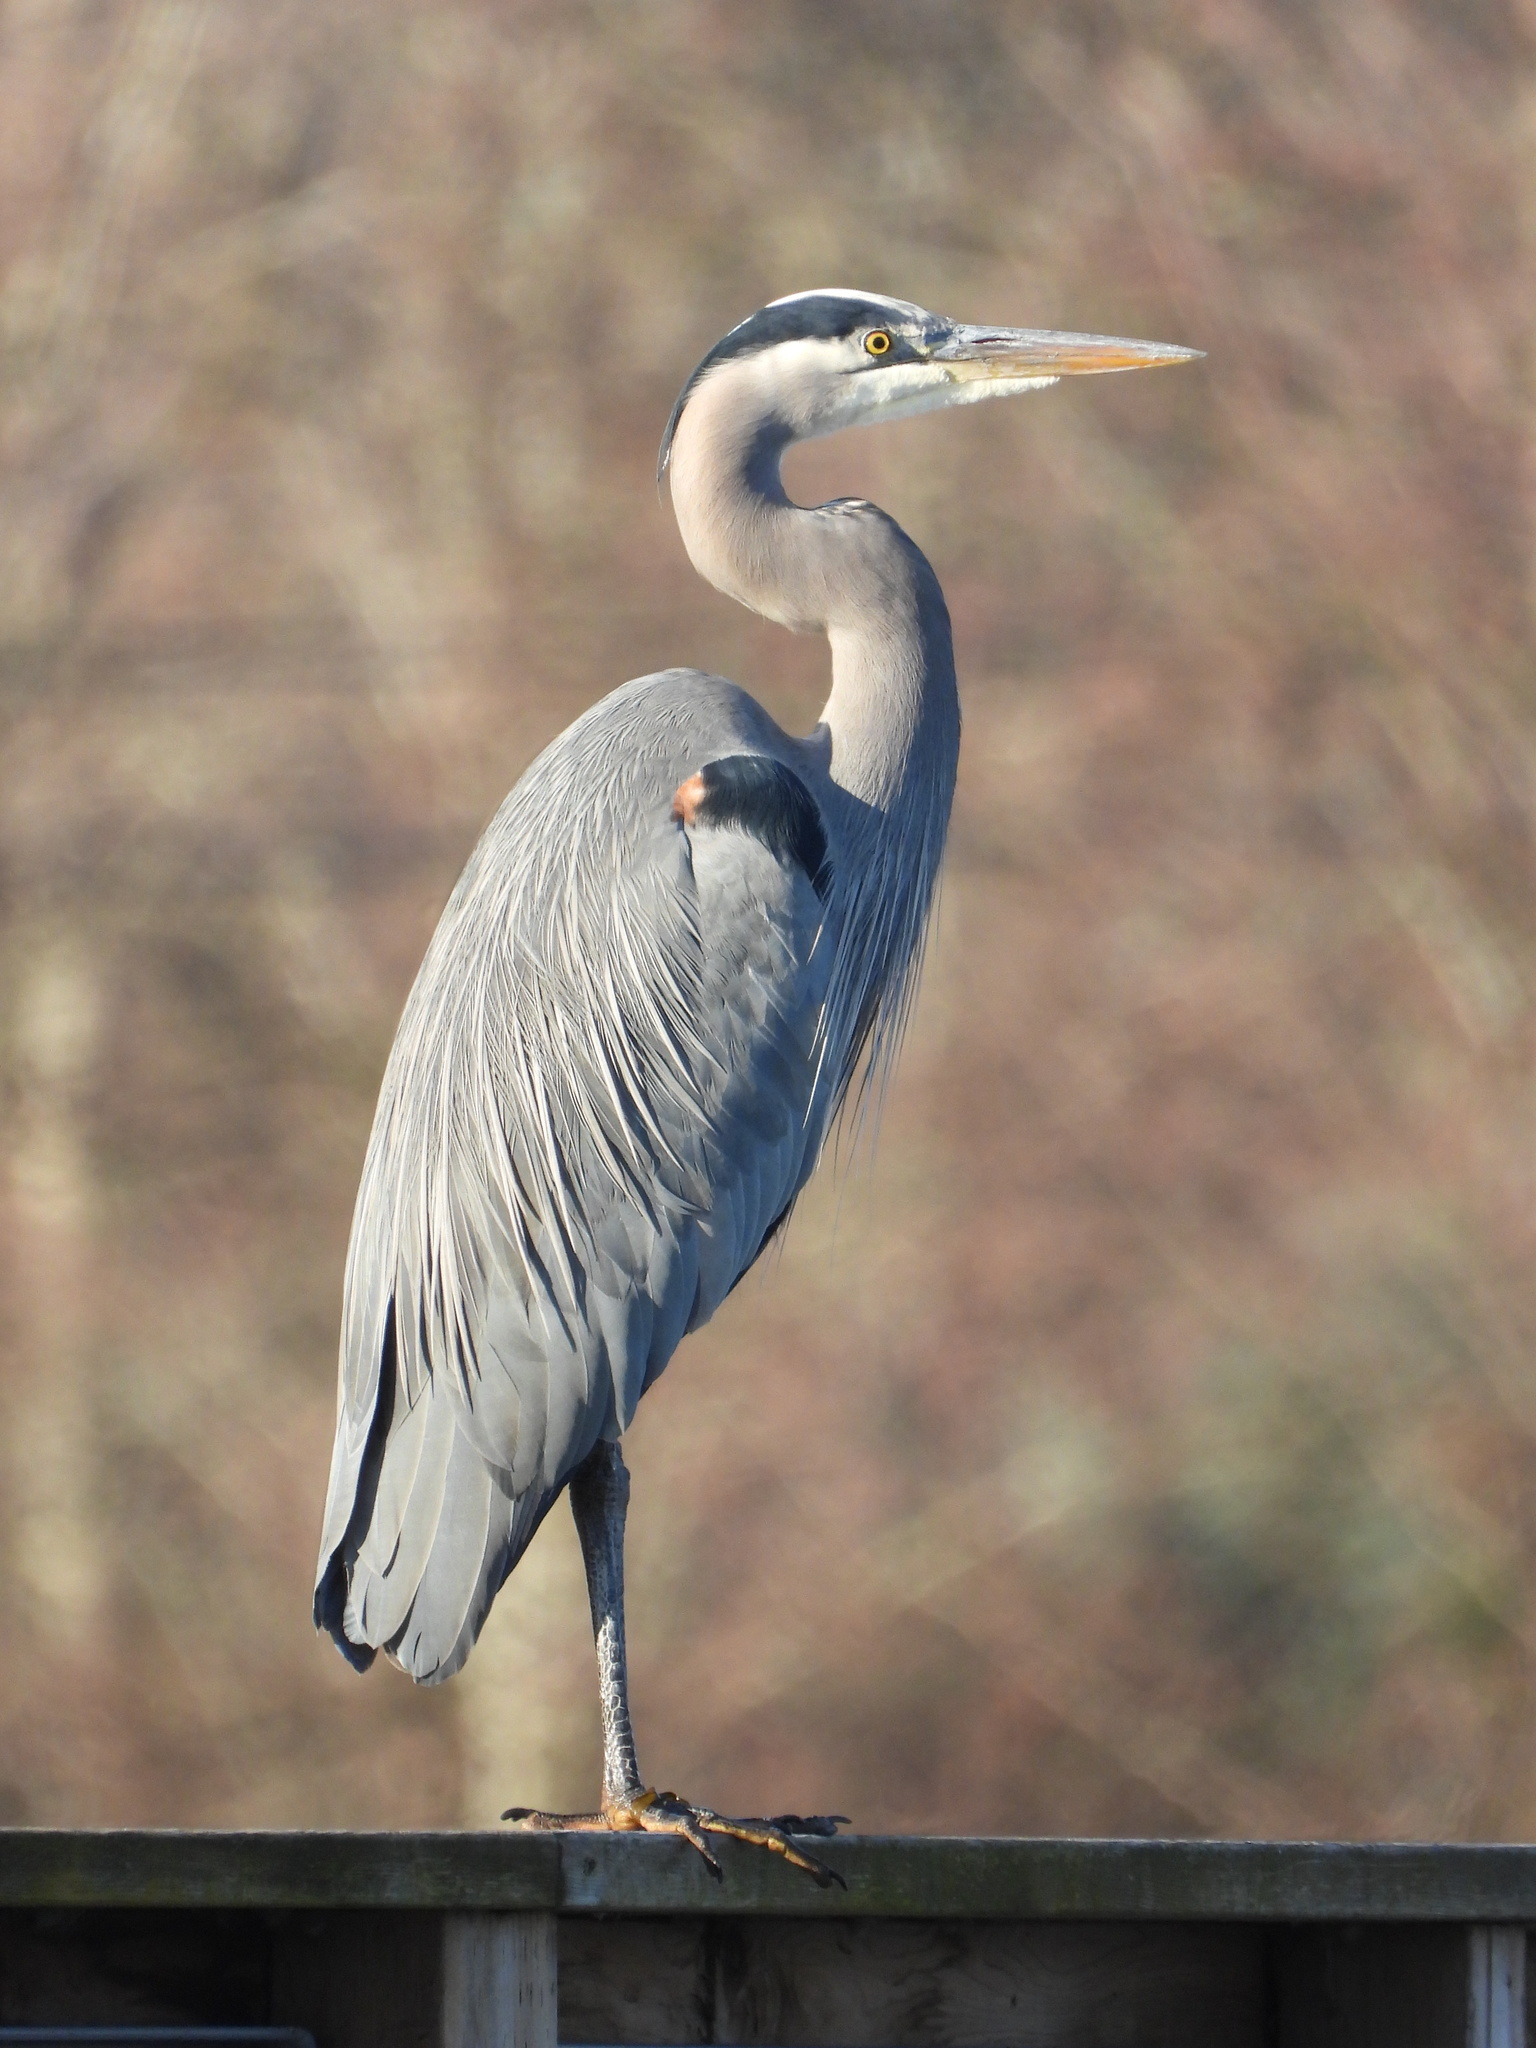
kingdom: Animalia
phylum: Chordata
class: Aves
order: Pelecaniformes
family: Ardeidae
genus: Ardea
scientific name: Ardea herodias
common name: Great blue heron
